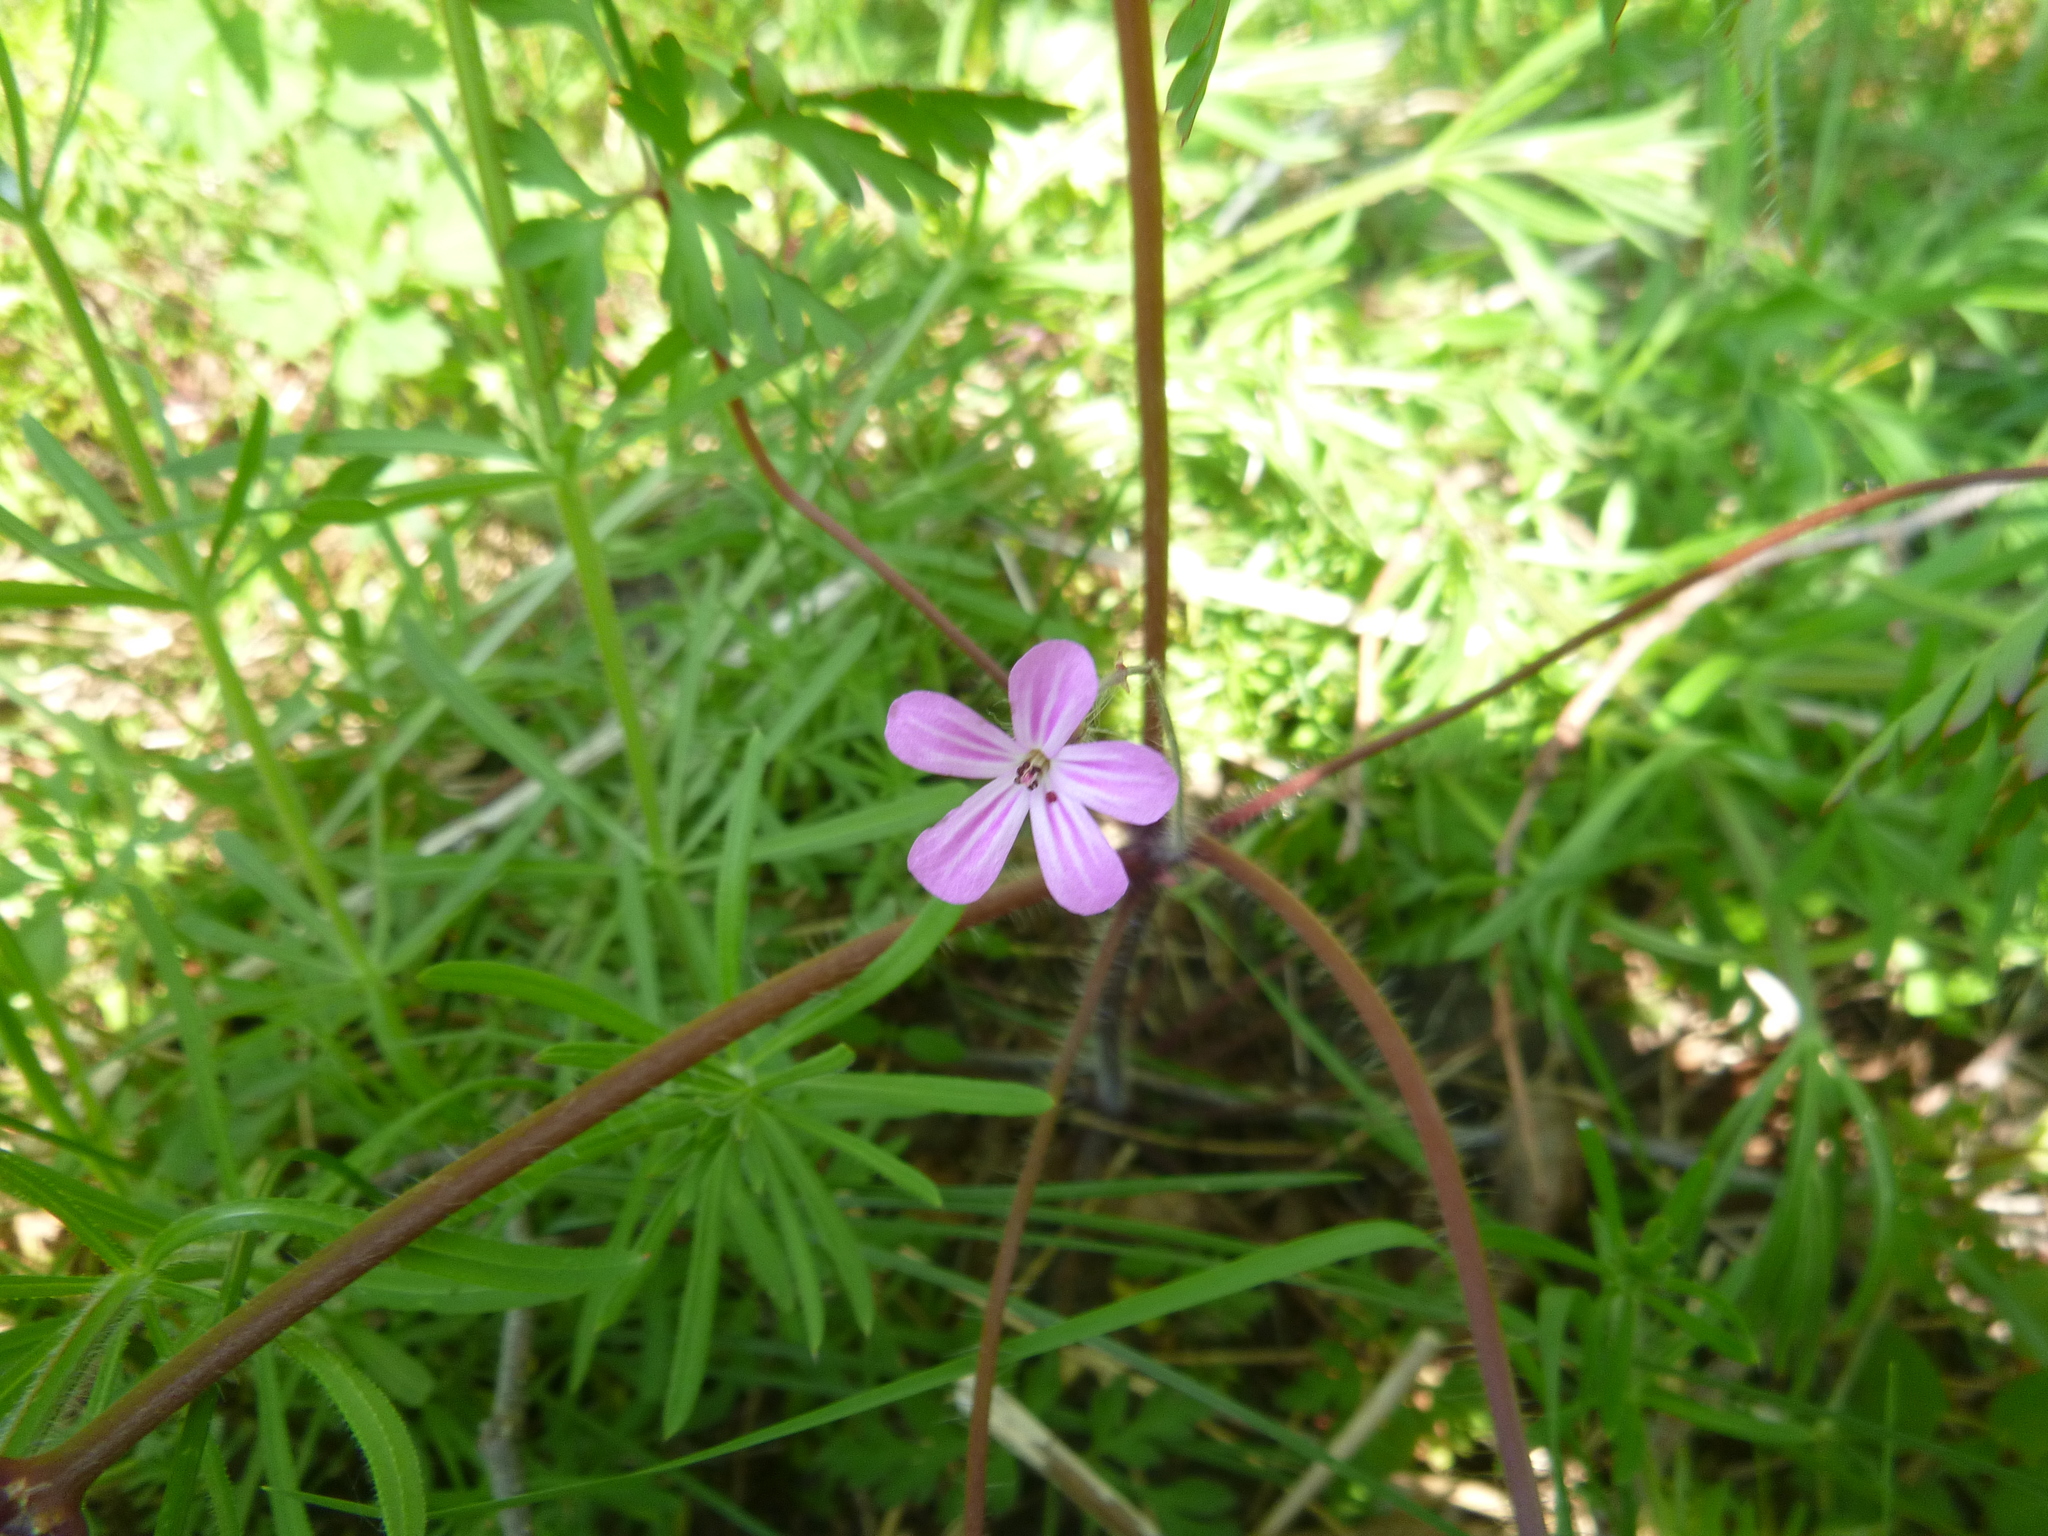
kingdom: Plantae
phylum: Tracheophyta
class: Magnoliopsida
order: Geraniales
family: Geraniaceae
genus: Geranium
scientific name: Geranium robertianum
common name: Herb-robert
